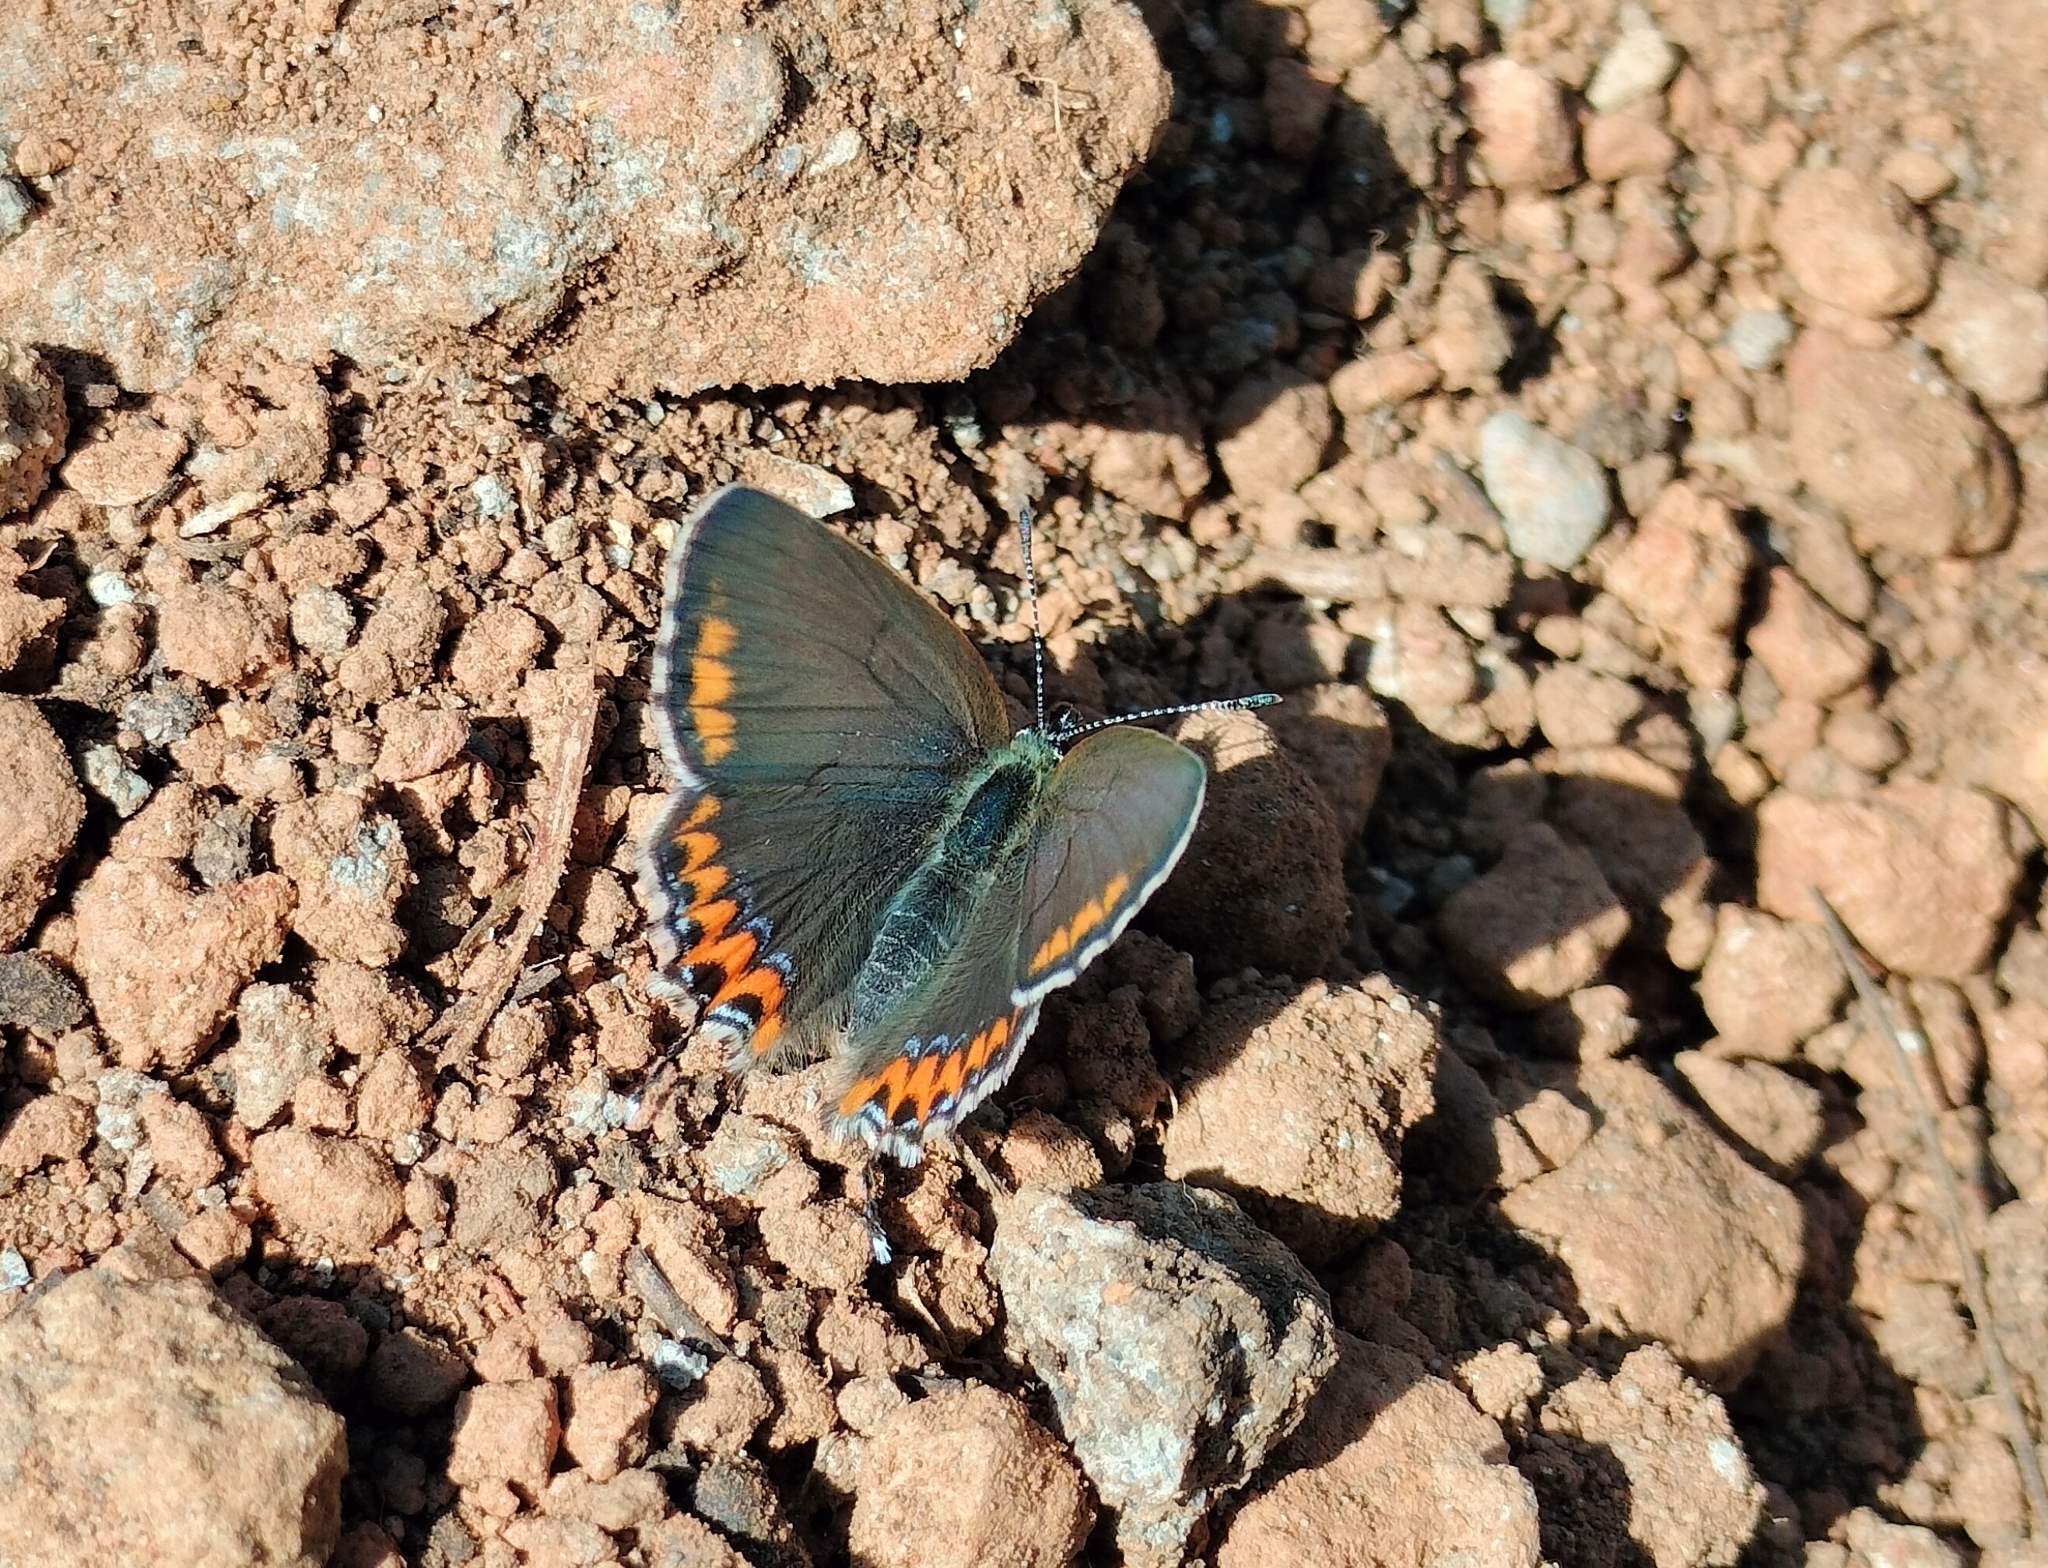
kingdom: Animalia
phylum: Arthropoda
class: Insecta
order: Lepidoptera
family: Lycaenidae
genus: Heliophorus
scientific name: Heliophorus sena
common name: Sorrel sapphire
